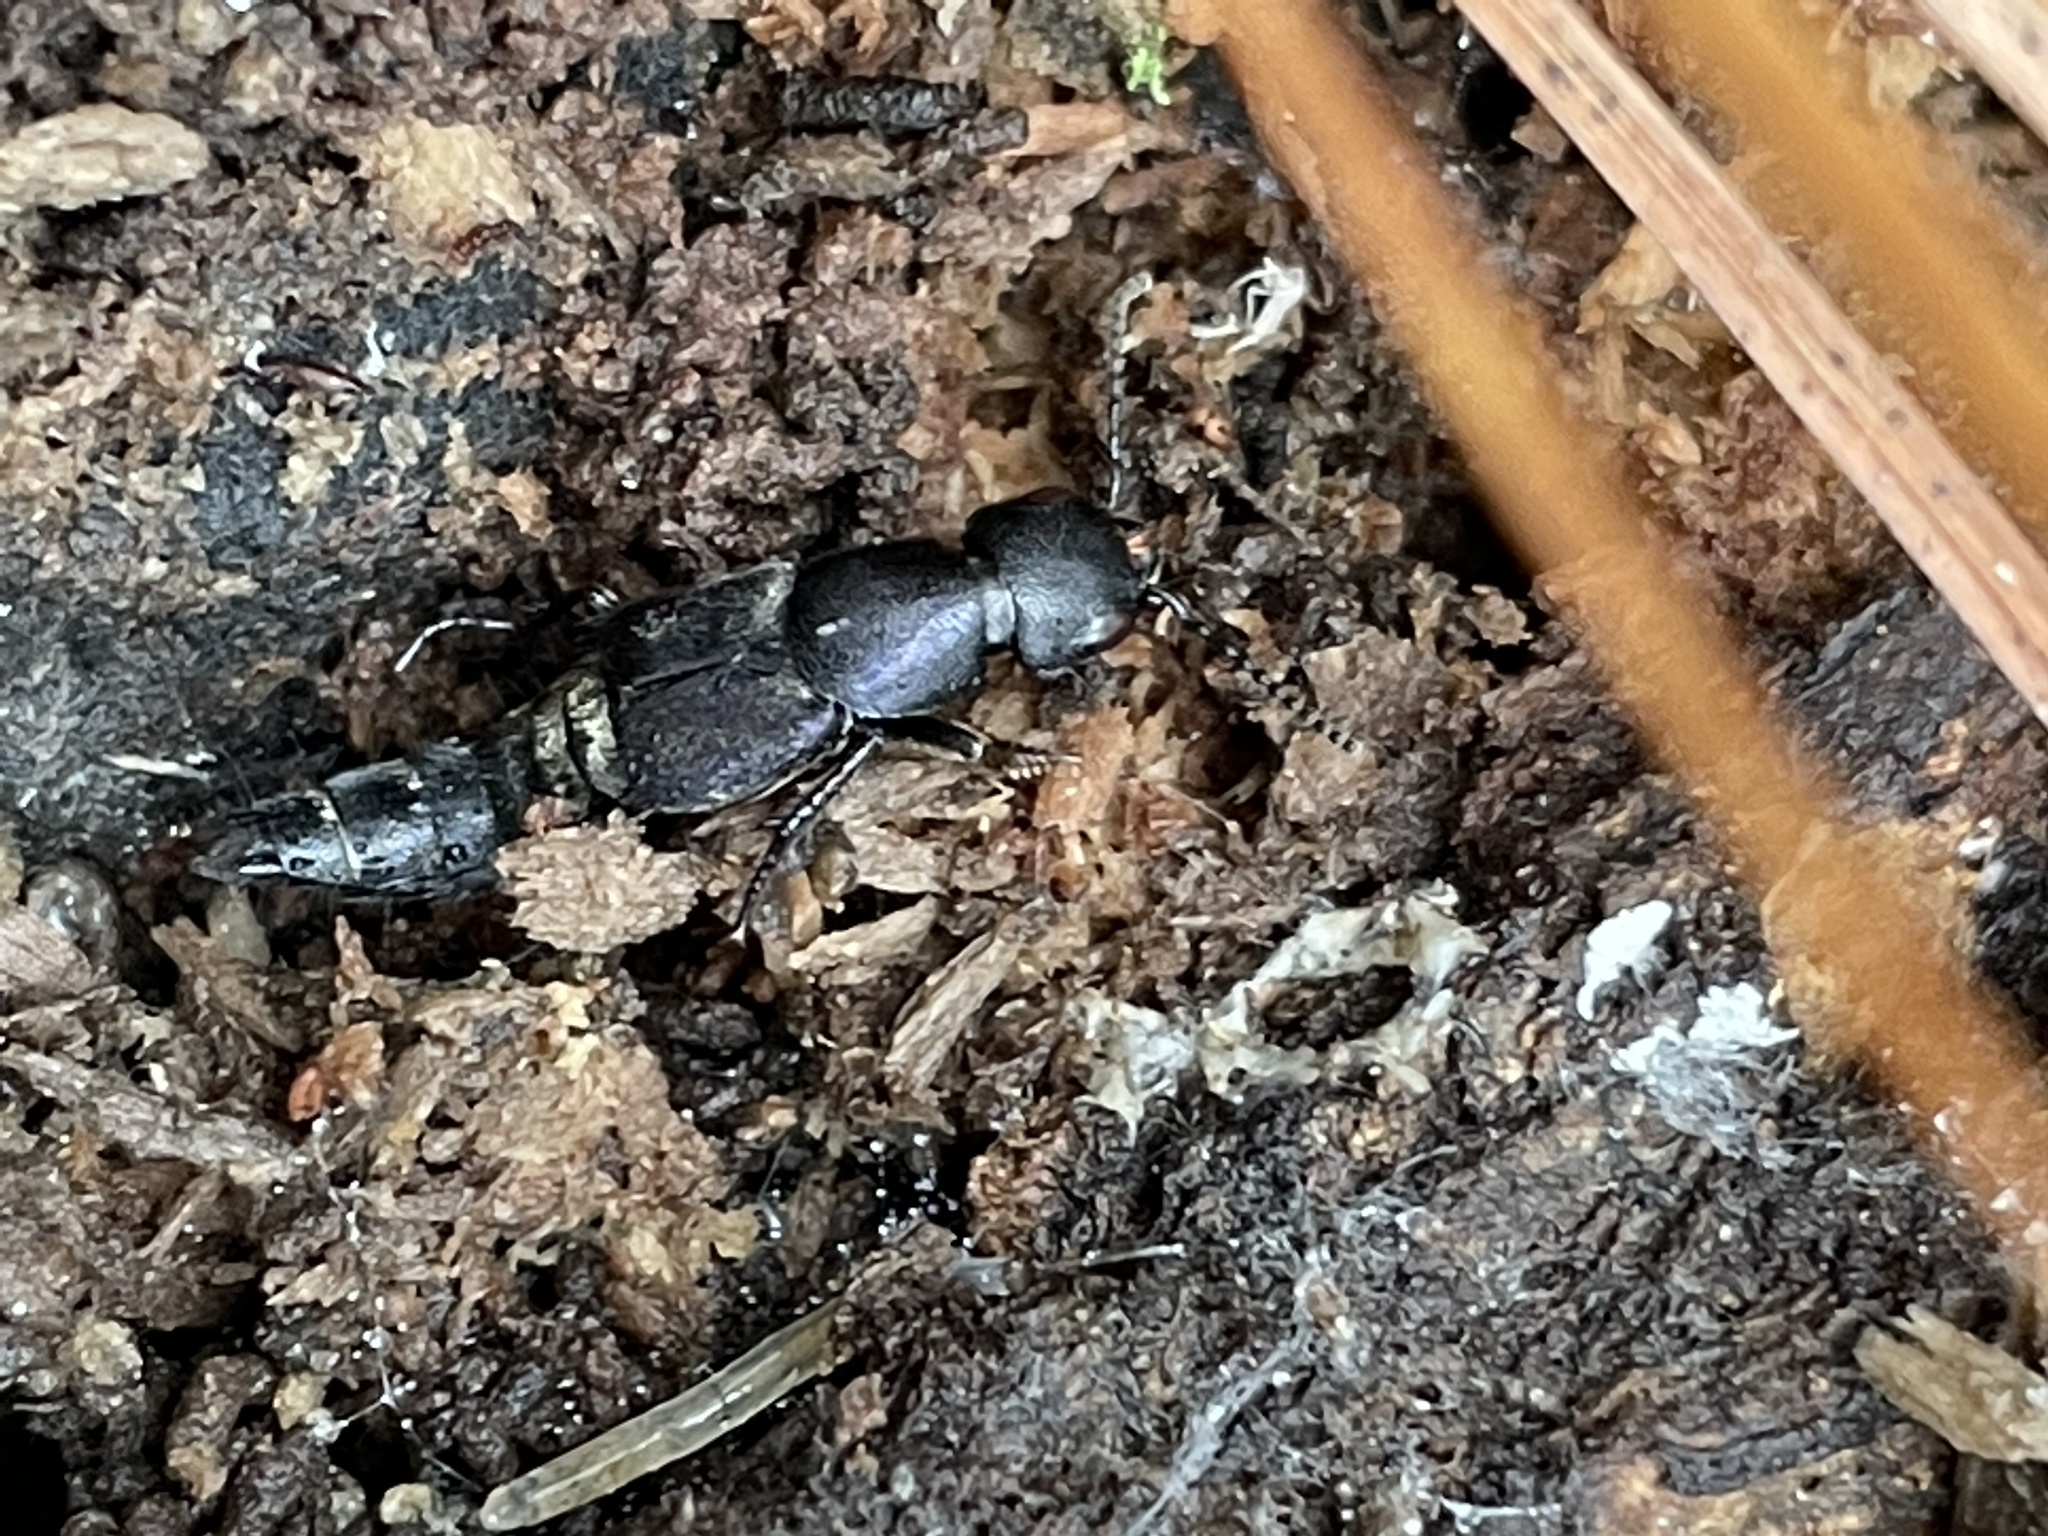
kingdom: Animalia
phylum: Arthropoda
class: Insecta
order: Coleoptera
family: Staphylinidae
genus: Platydracus
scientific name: Platydracus violaceus
